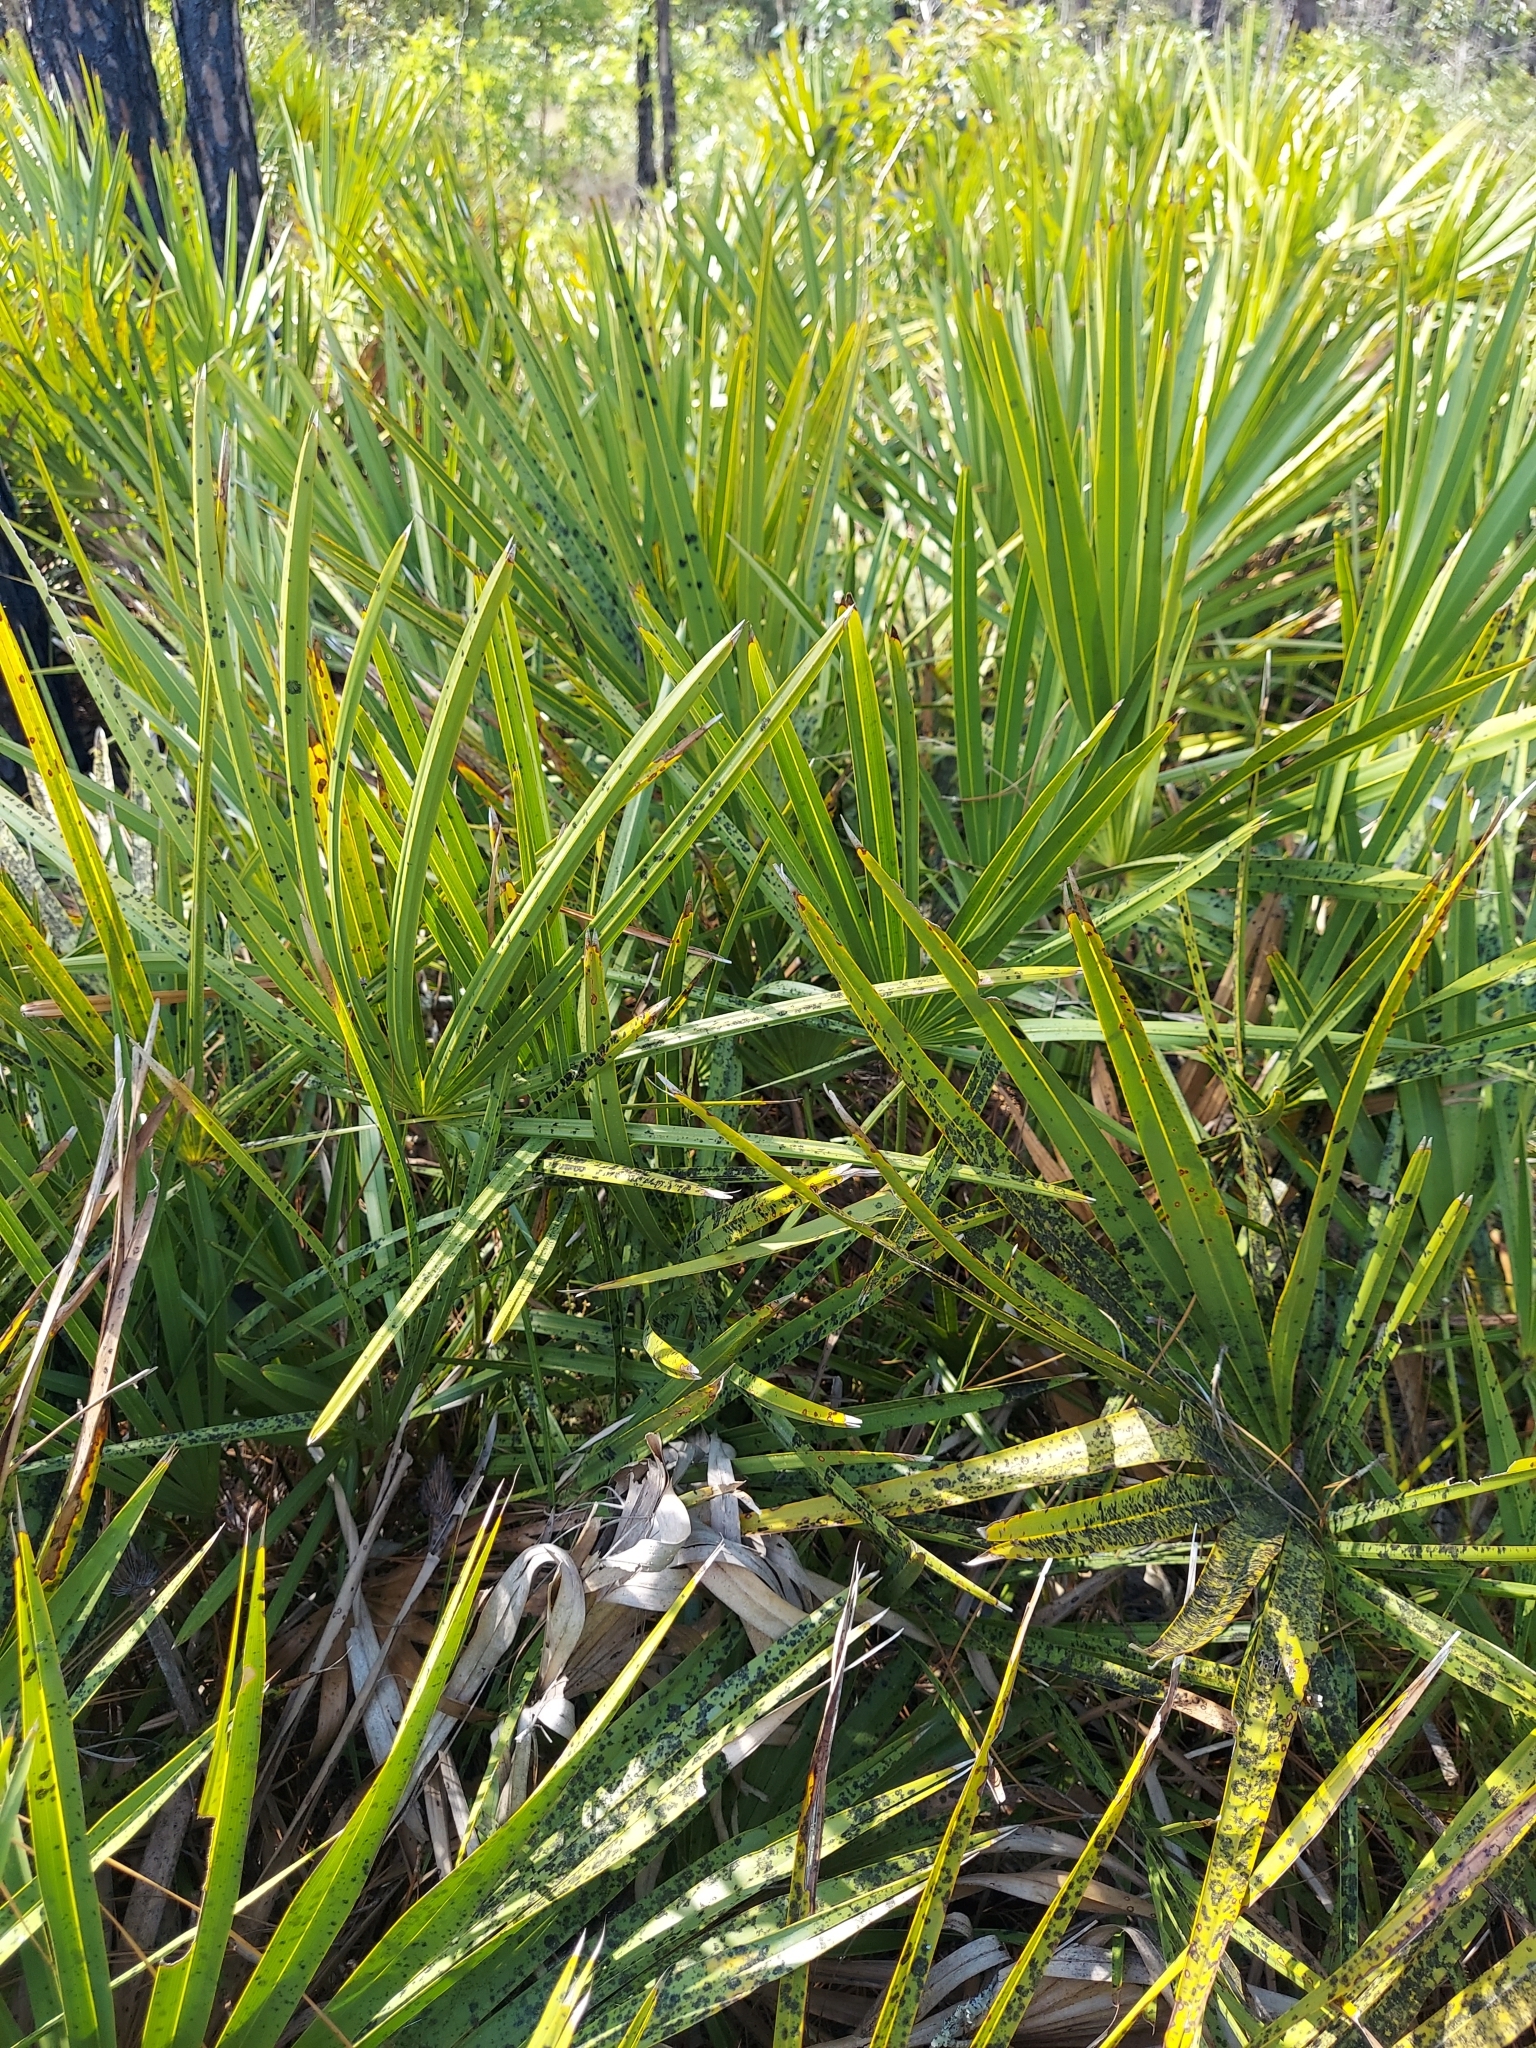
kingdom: Plantae
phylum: Tracheophyta
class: Liliopsida
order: Arecales
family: Arecaceae
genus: Serenoa
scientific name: Serenoa repens
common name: Saw-palmetto
